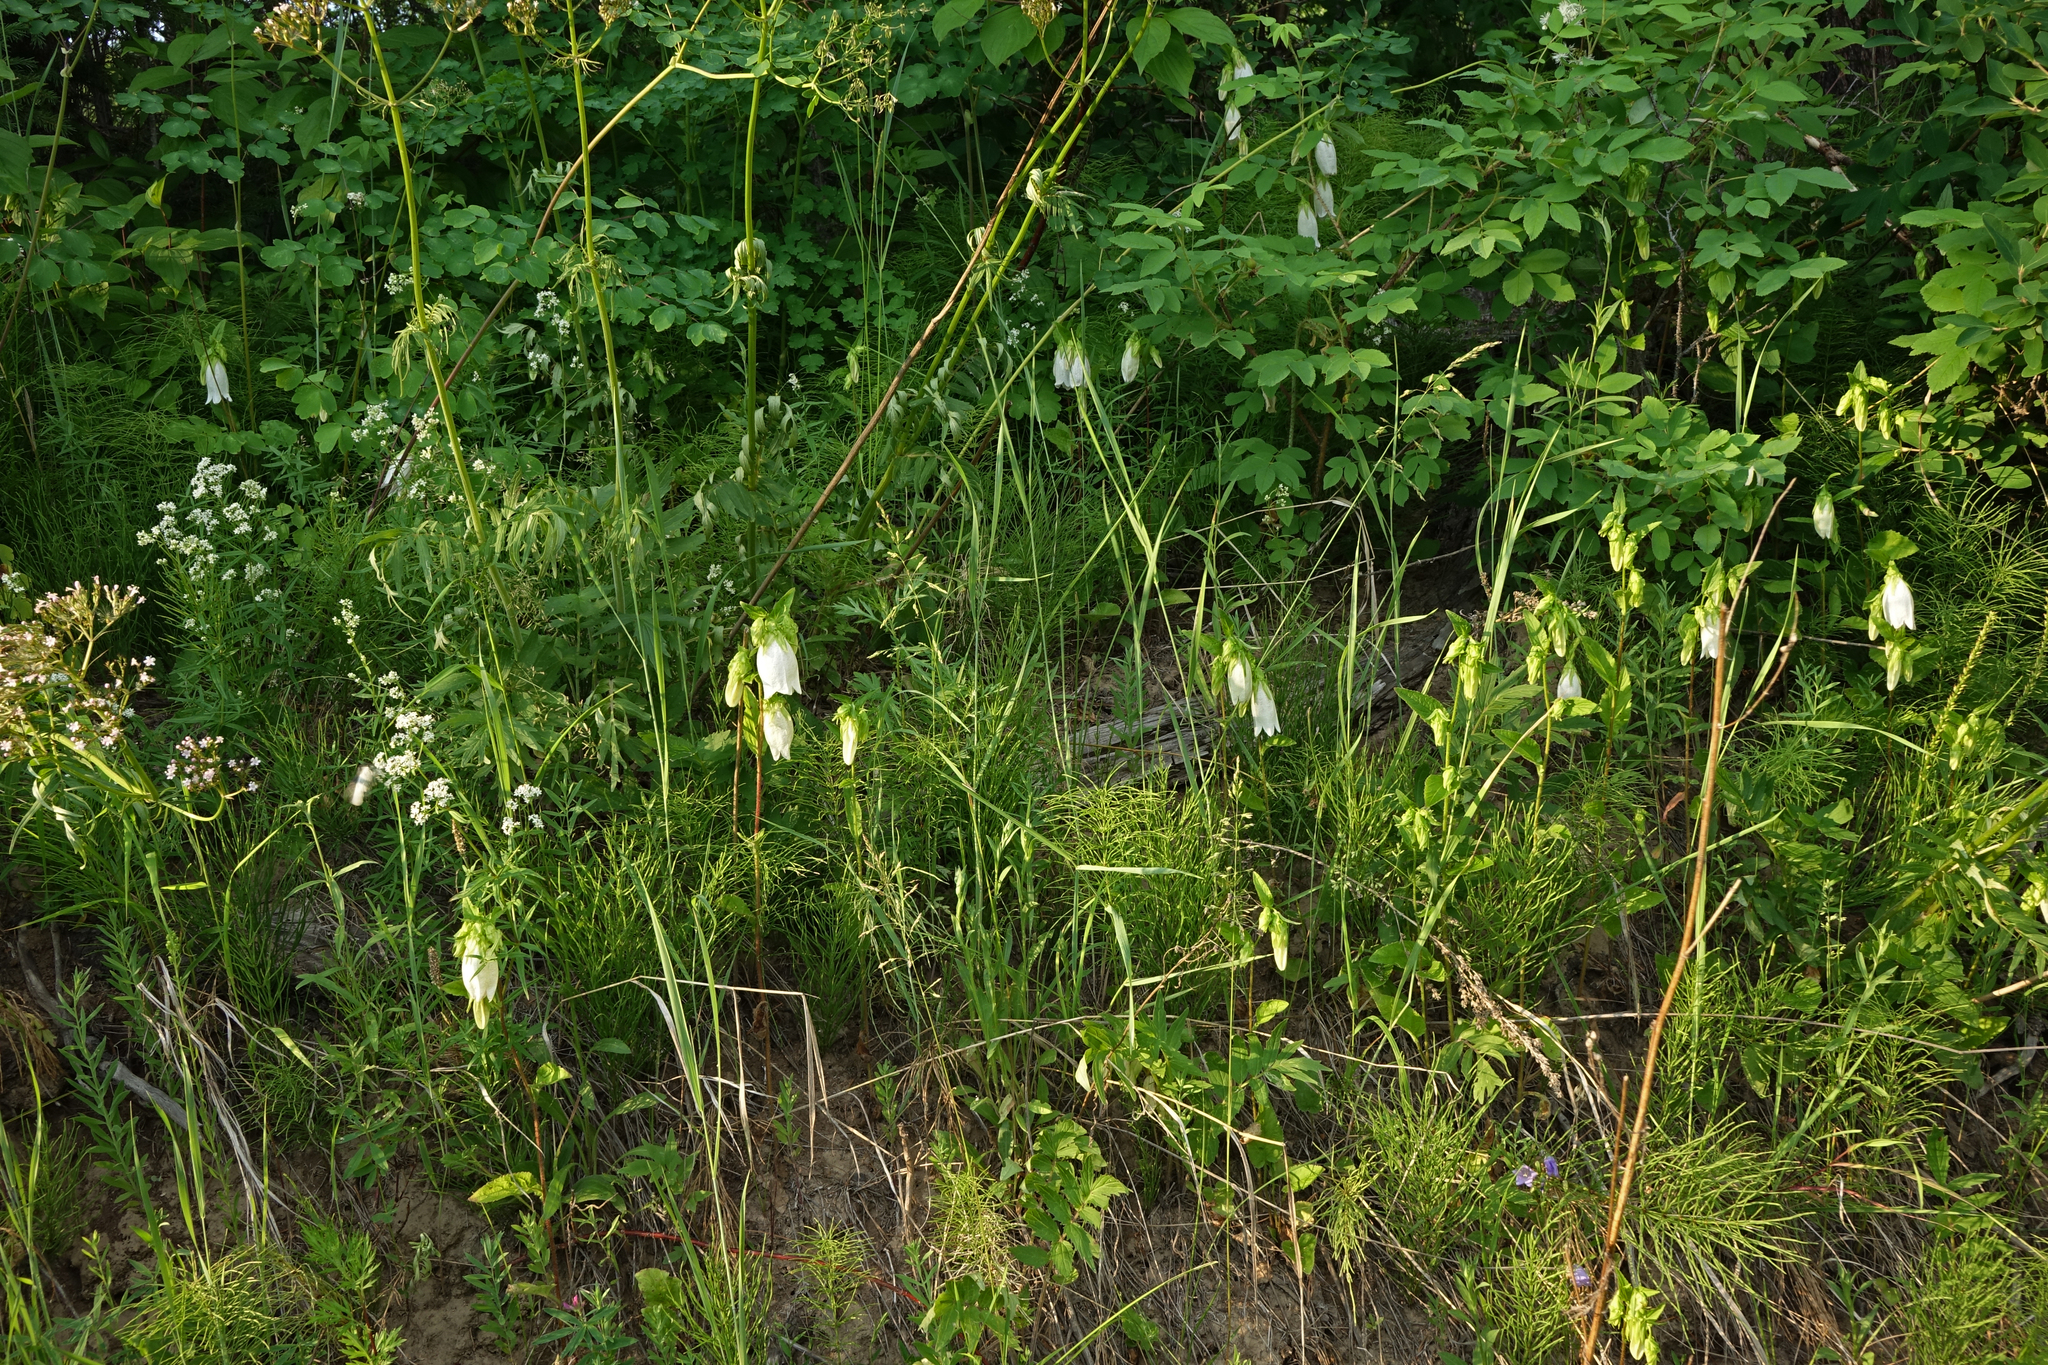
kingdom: Plantae
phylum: Tracheophyta
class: Magnoliopsida
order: Asterales
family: Campanulaceae
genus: Campanula
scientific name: Campanula punctata
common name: Spotted bellflower
